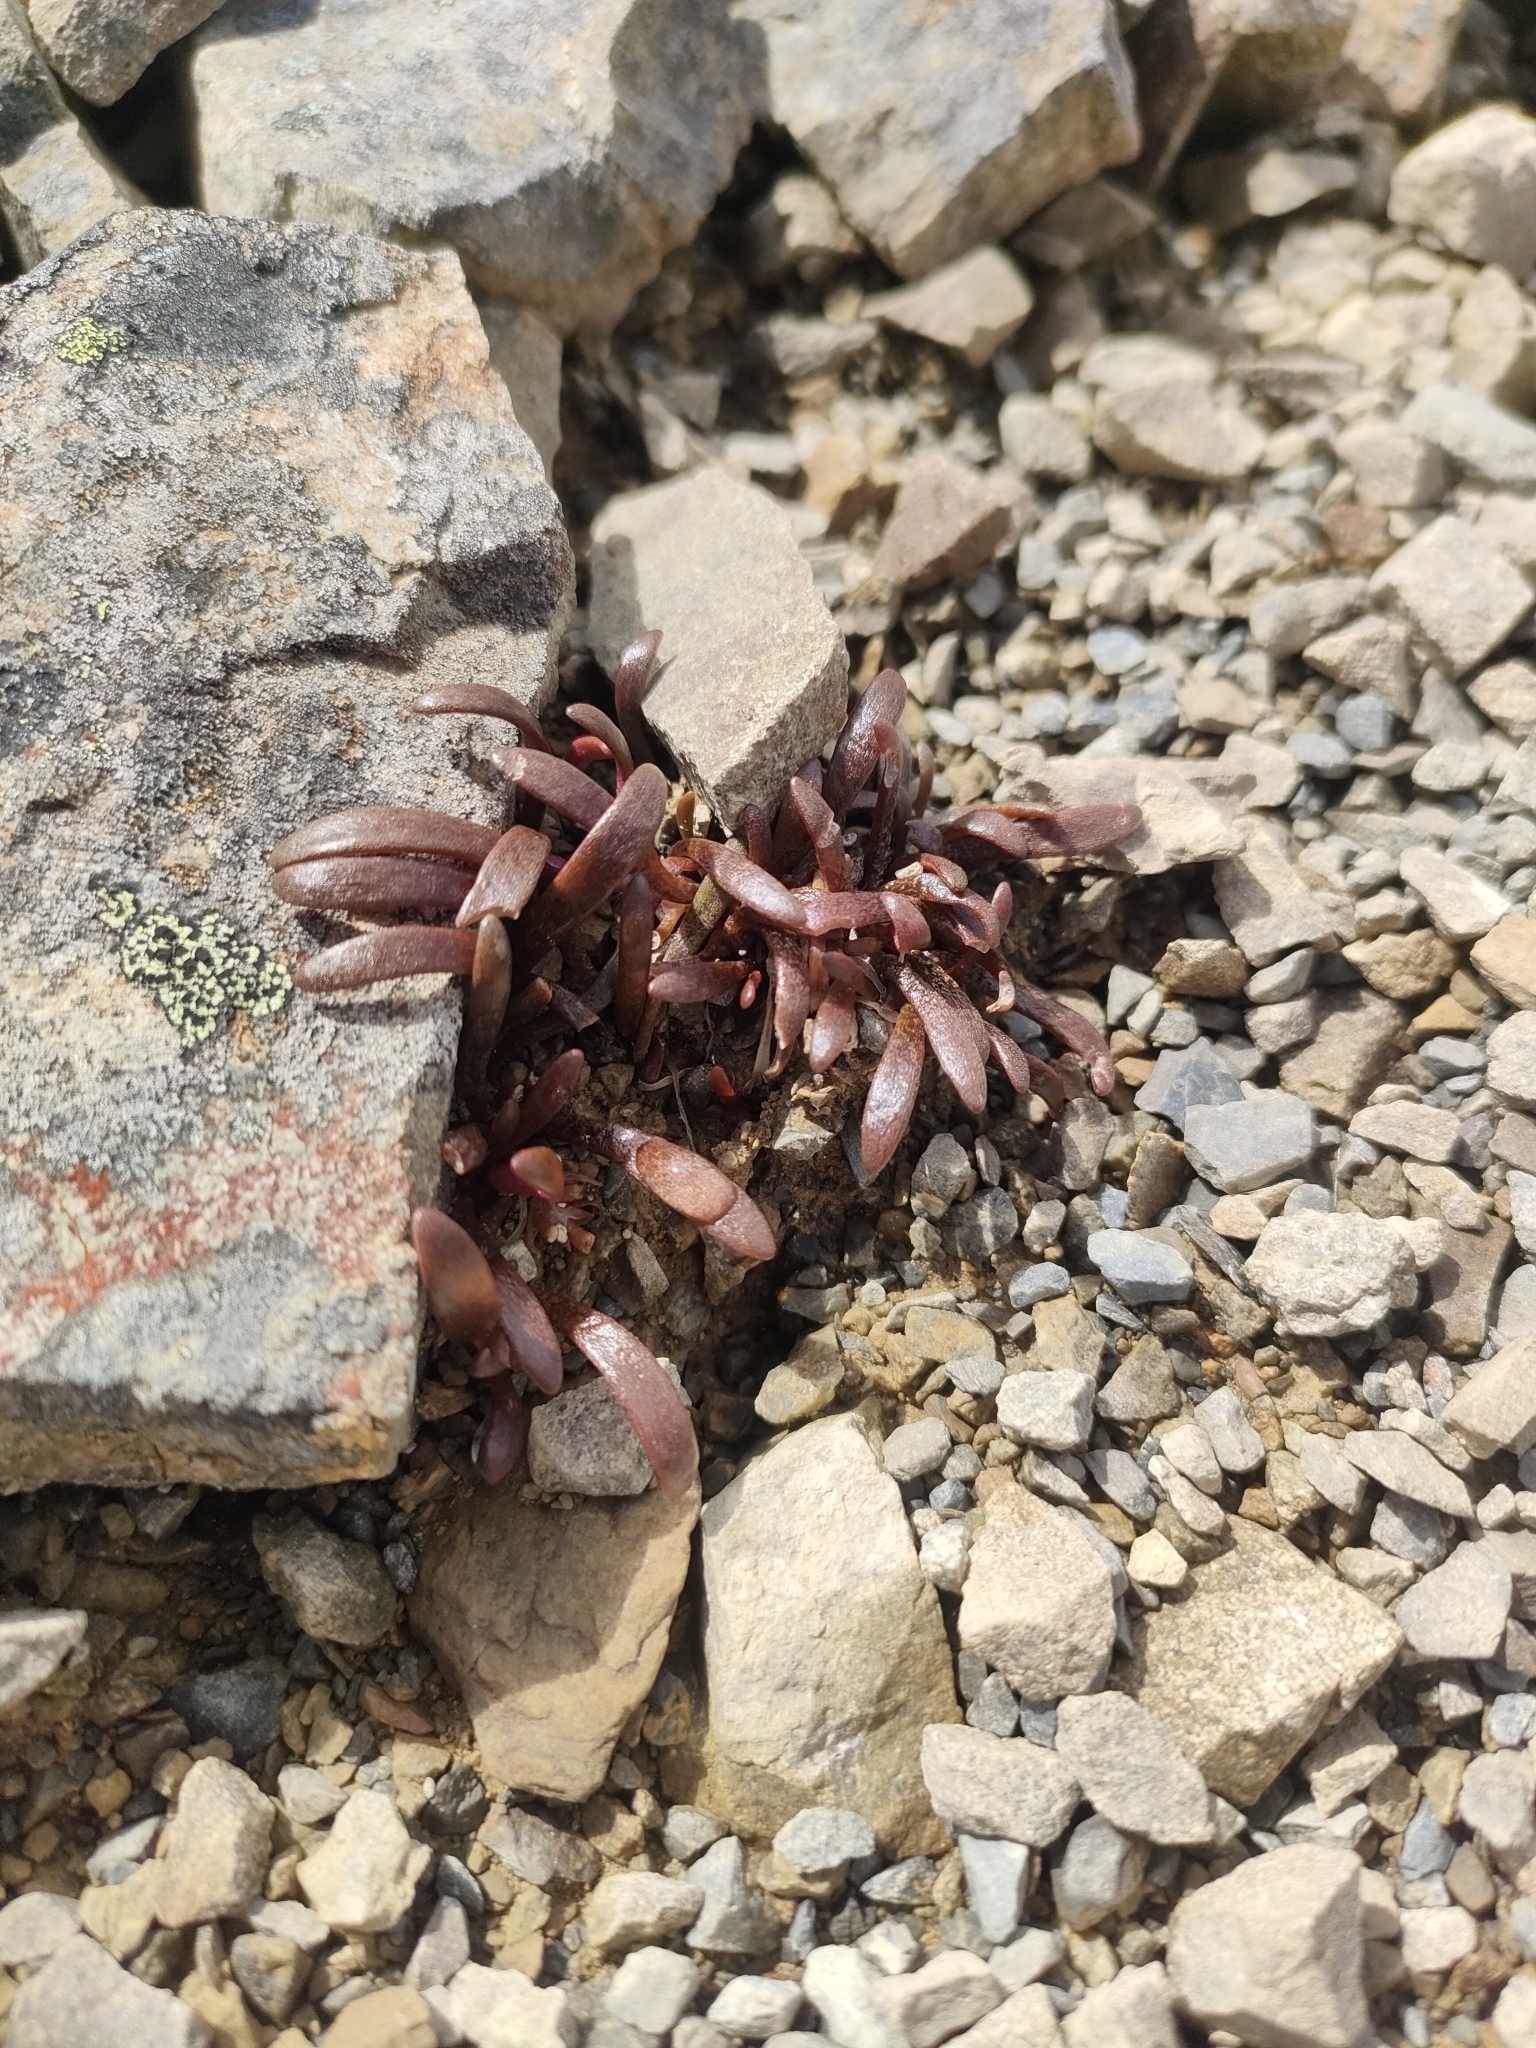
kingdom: Plantae
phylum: Tracheophyta
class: Magnoliopsida
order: Caryophyllales
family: Montiaceae
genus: Montia
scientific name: Montia erythrophylla
